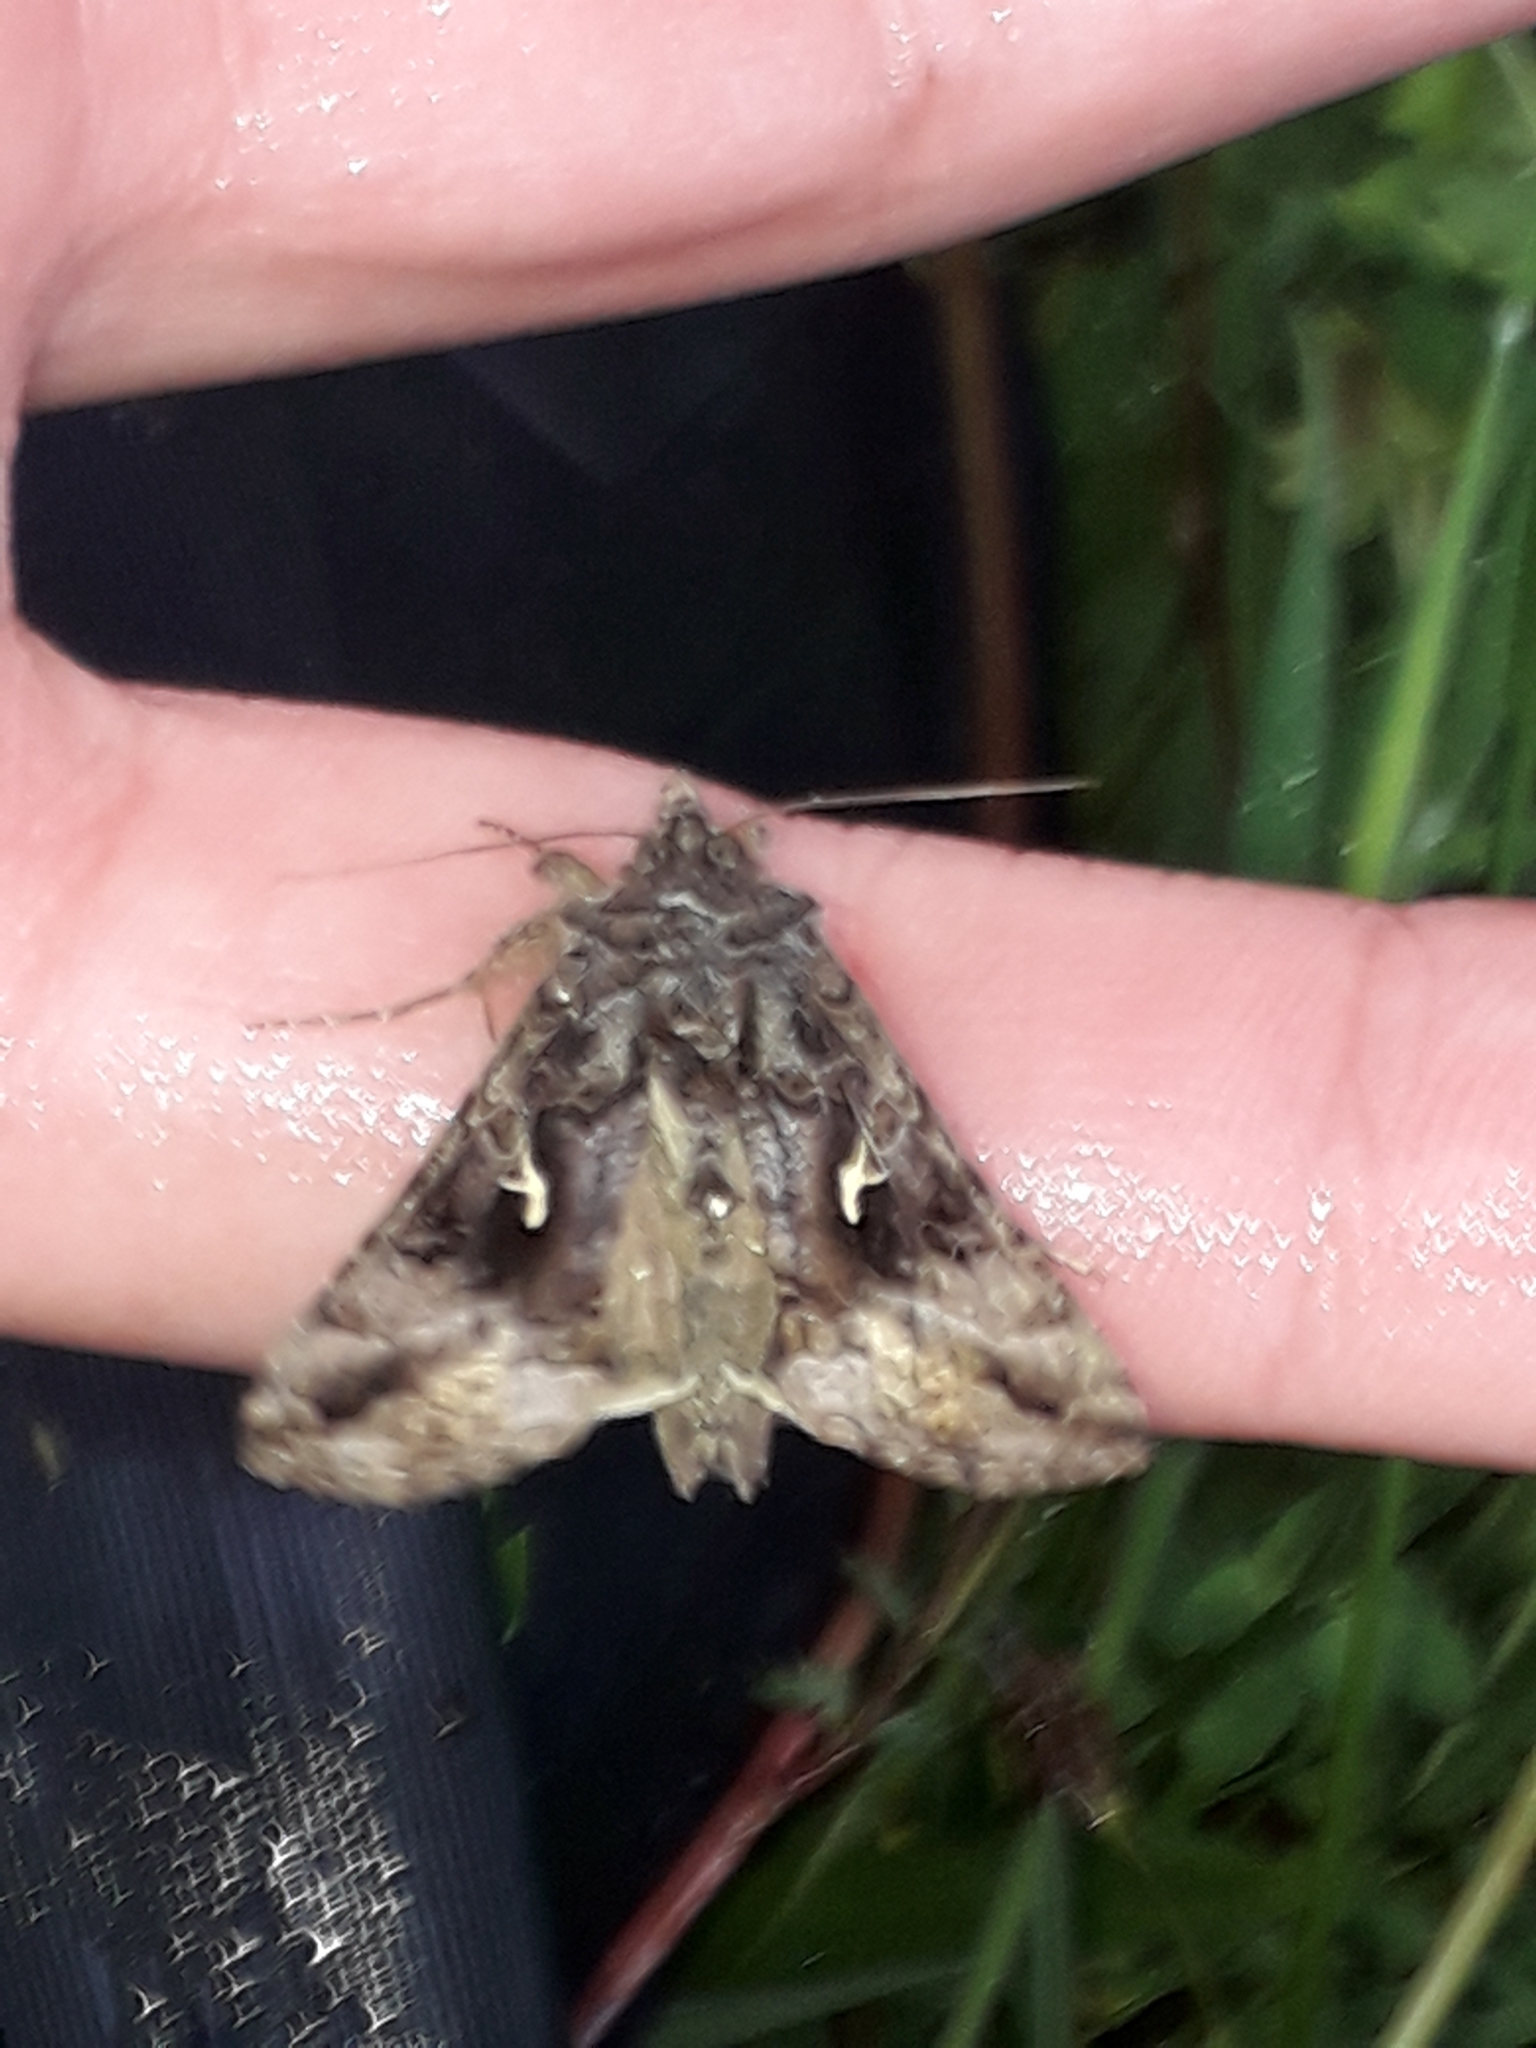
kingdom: Animalia
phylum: Arthropoda
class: Insecta
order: Lepidoptera
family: Noctuidae
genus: Autographa
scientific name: Autographa gamma
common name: Silver y
